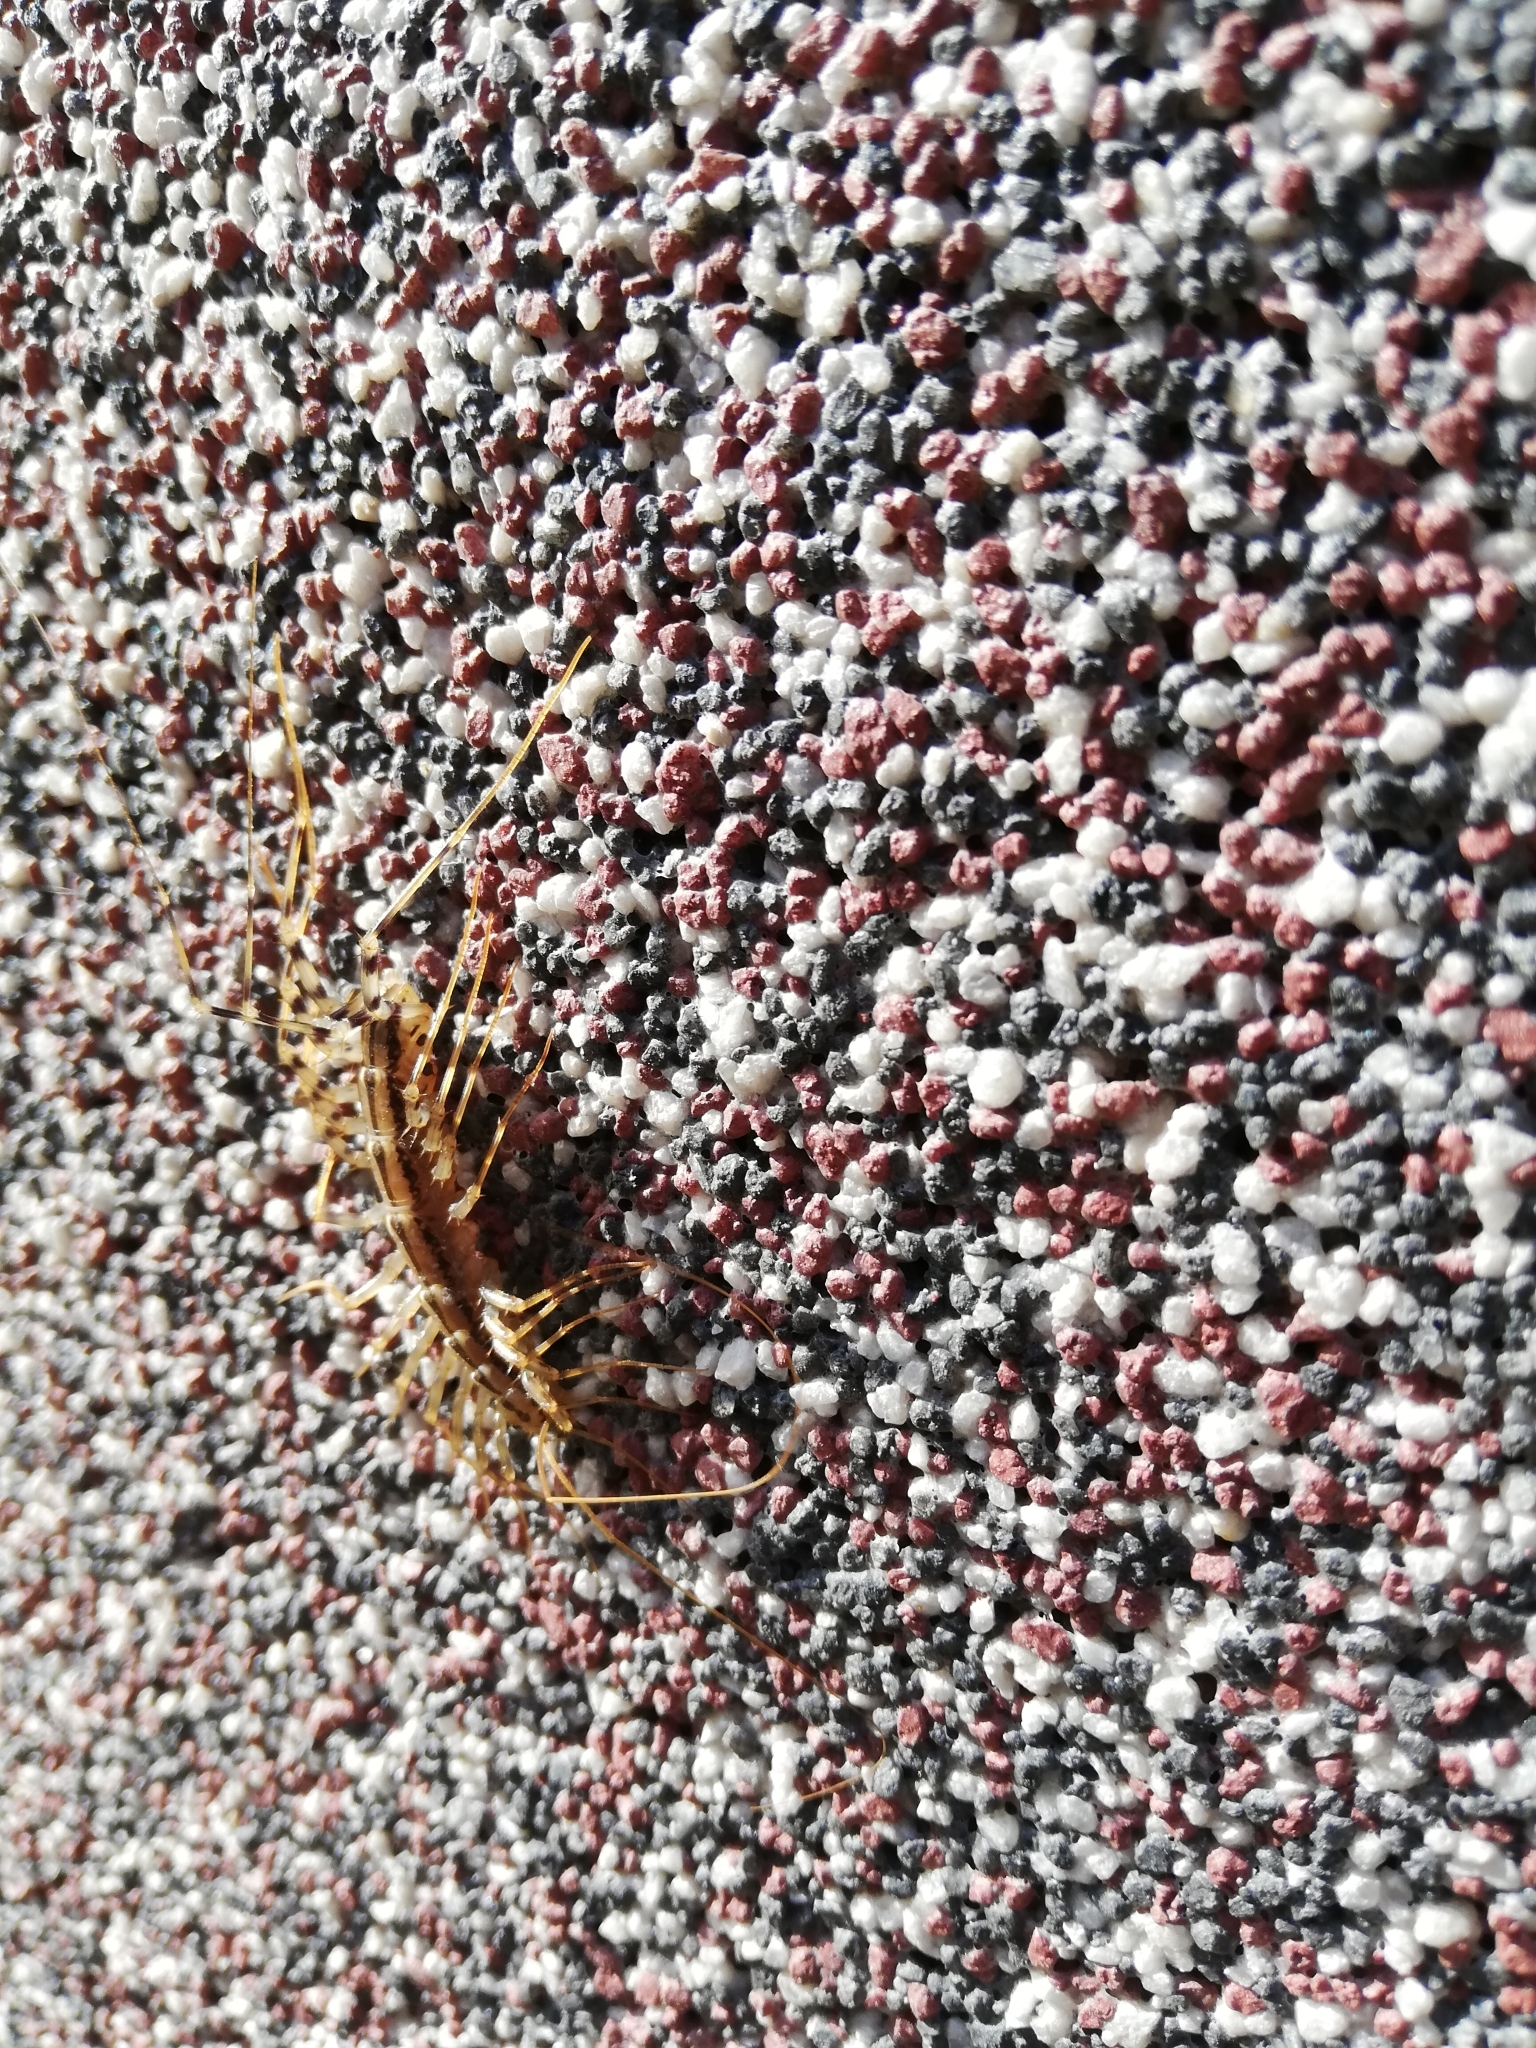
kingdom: Animalia
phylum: Arthropoda
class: Chilopoda
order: Scutigeromorpha
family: Scutigeridae
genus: Scutigera
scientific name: Scutigera coleoptrata
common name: House centipede
